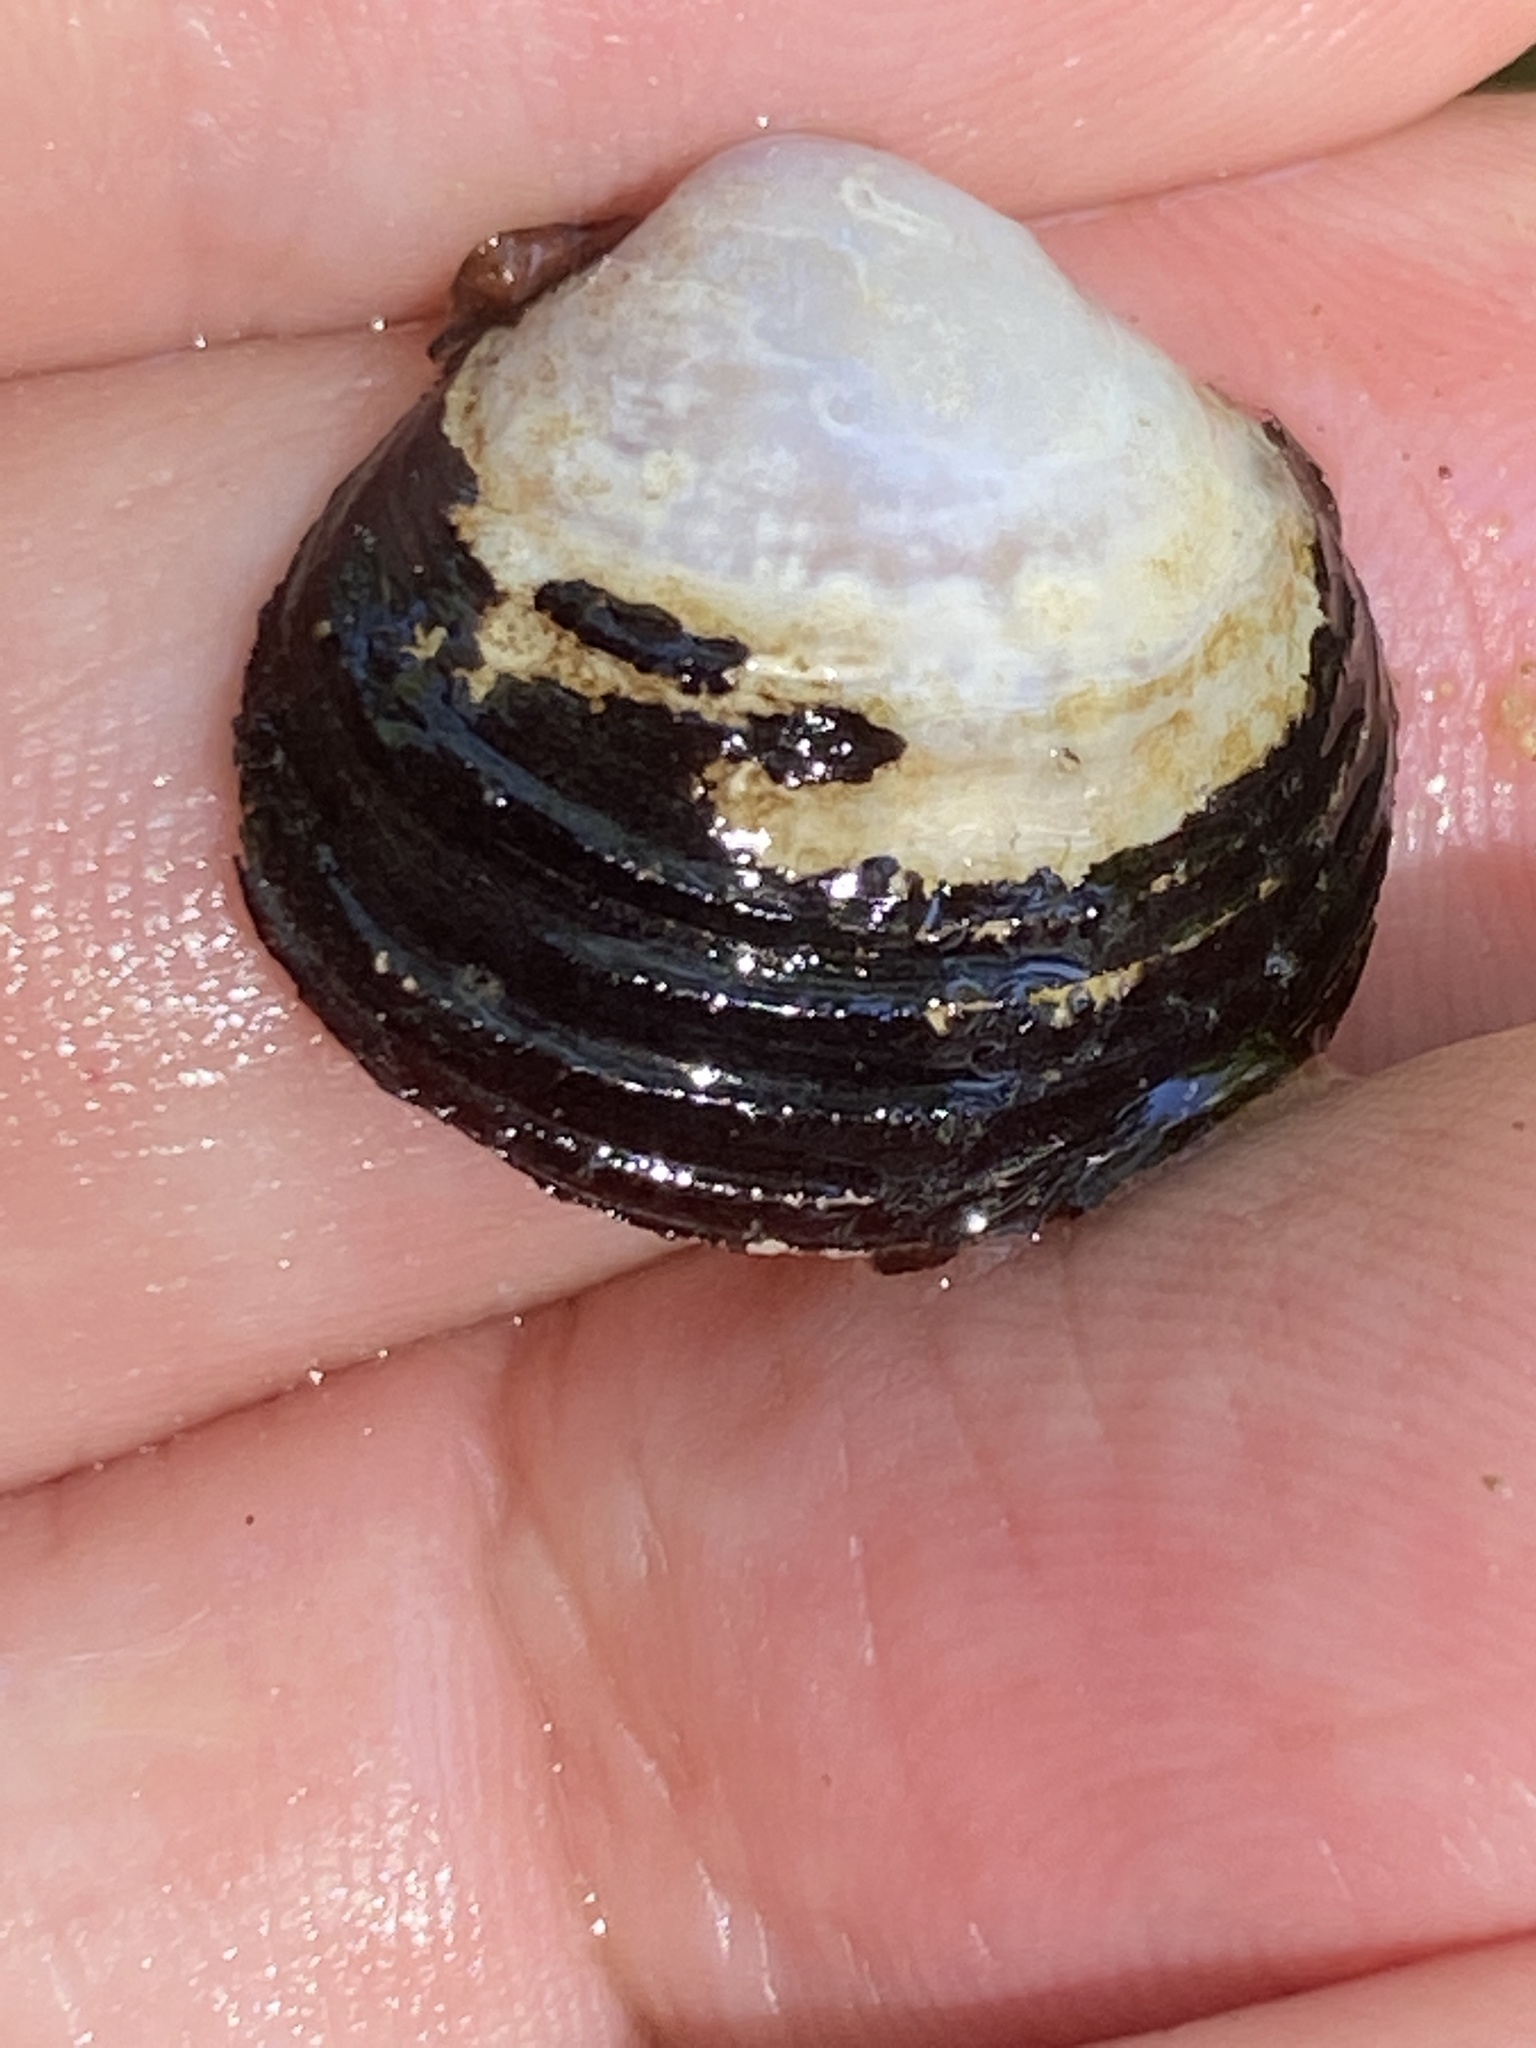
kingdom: Animalia
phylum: Mollusca
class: Bivalvia
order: Venerida
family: Cyrenidae
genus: Corbicula
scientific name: Corbicula fluminea
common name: Asian clam
